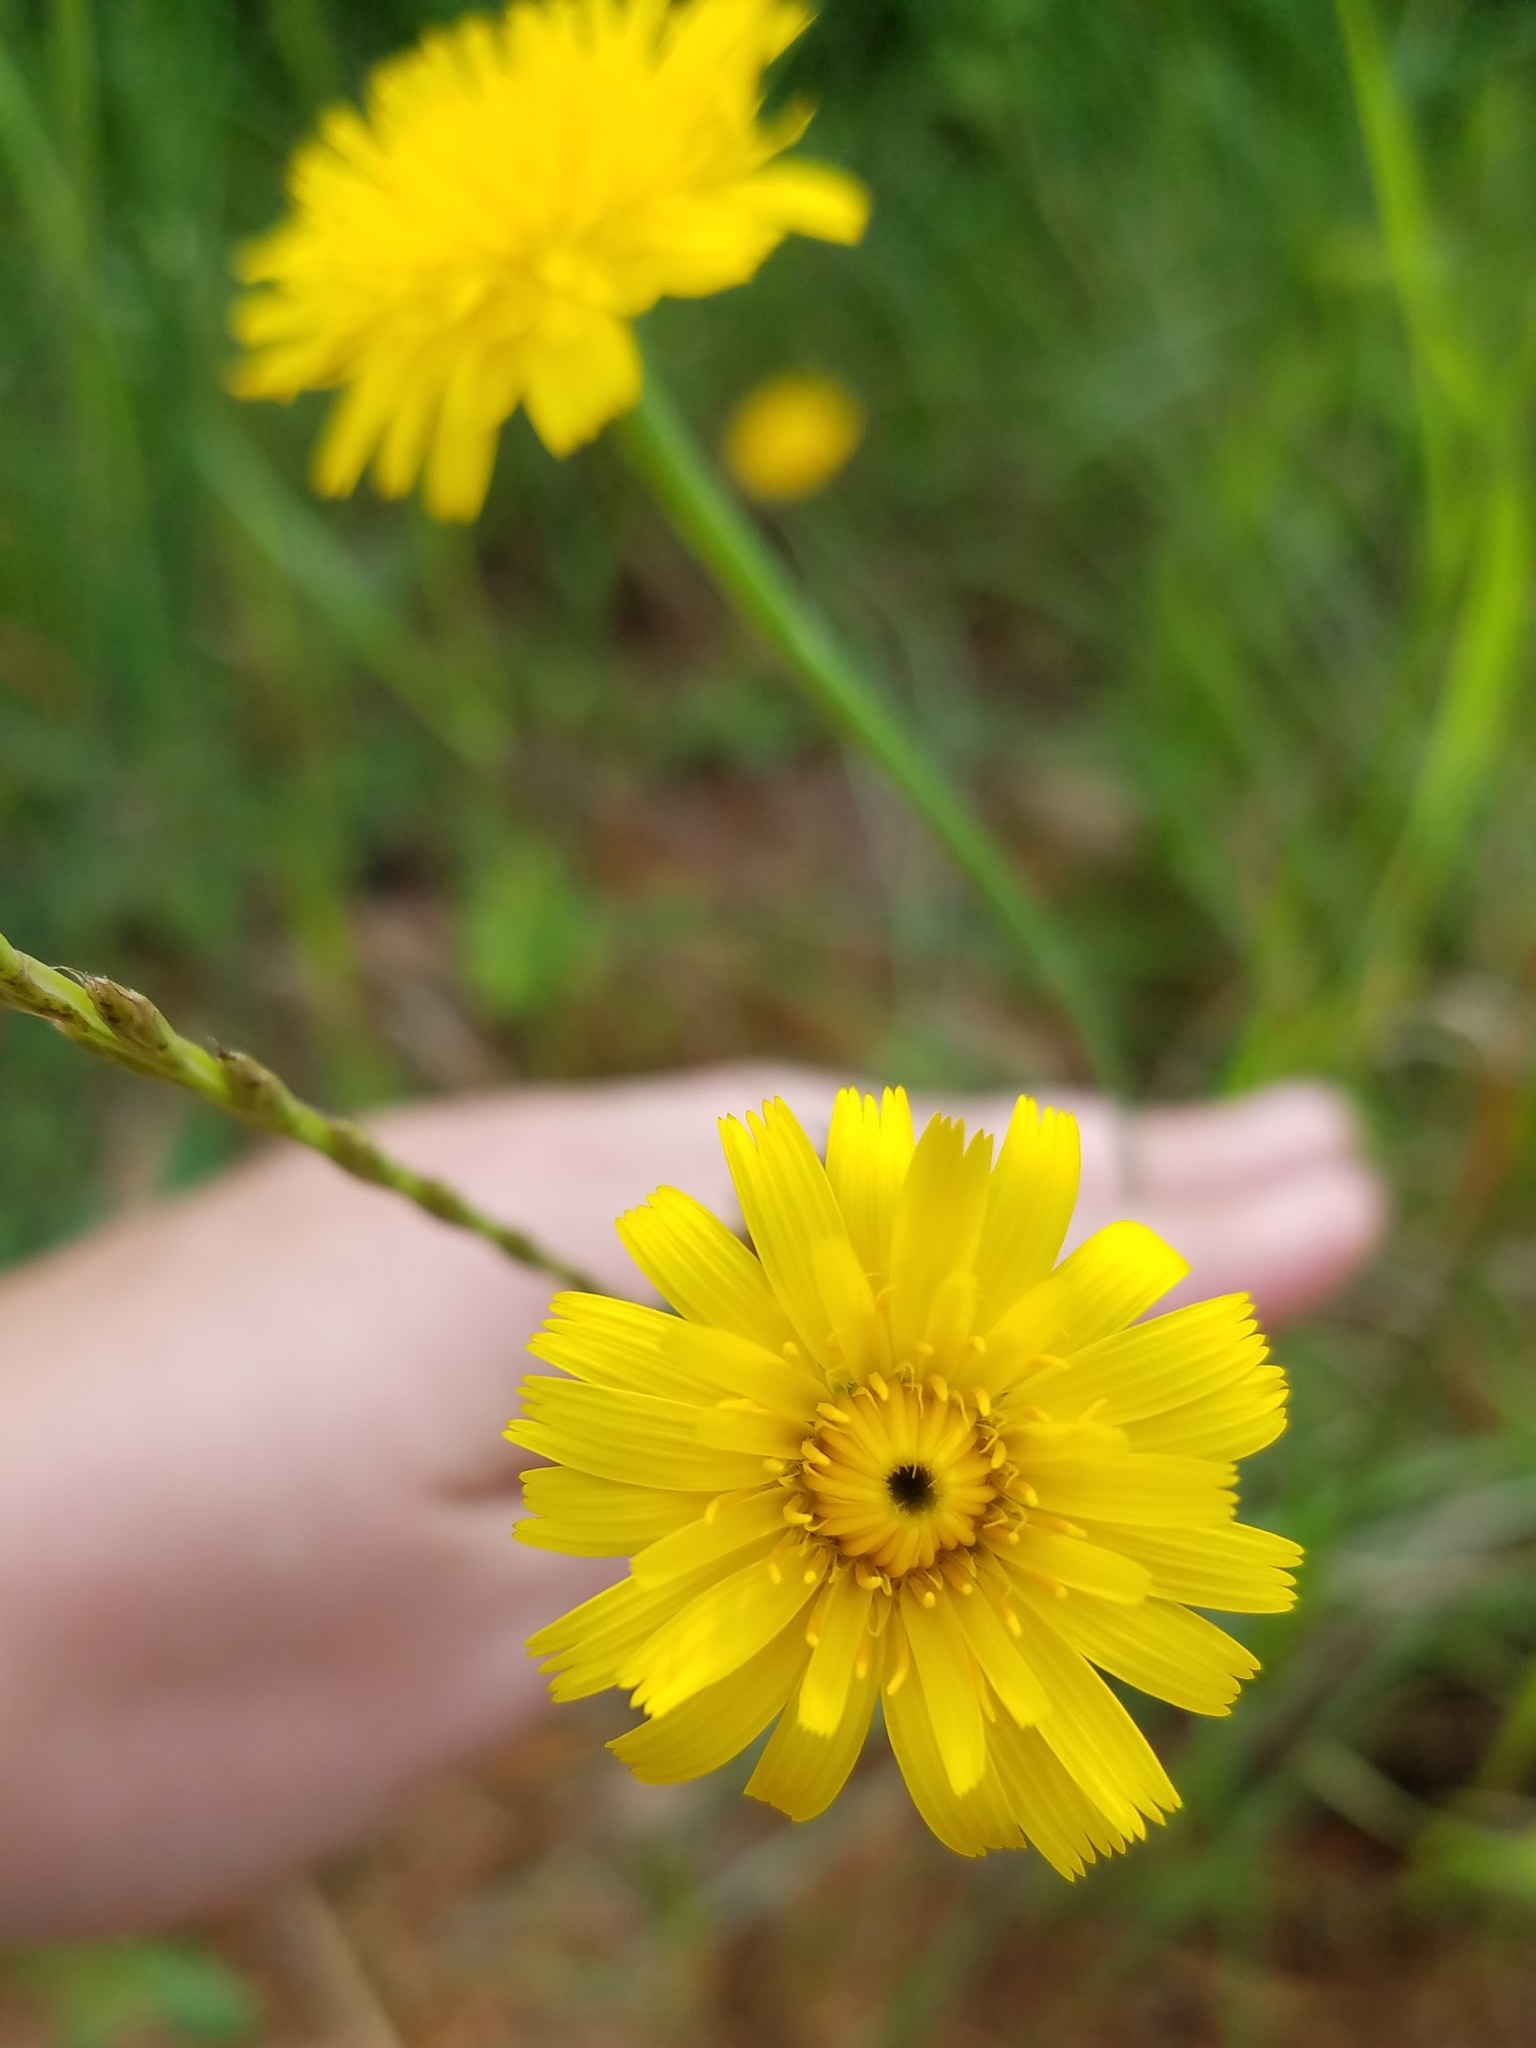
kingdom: Plantae
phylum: Tracheophyta
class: Magnoliopsida
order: Asterales
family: Asteraceae
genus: Hypochaeris
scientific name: Hypochaeris radicata
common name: Flatweed
